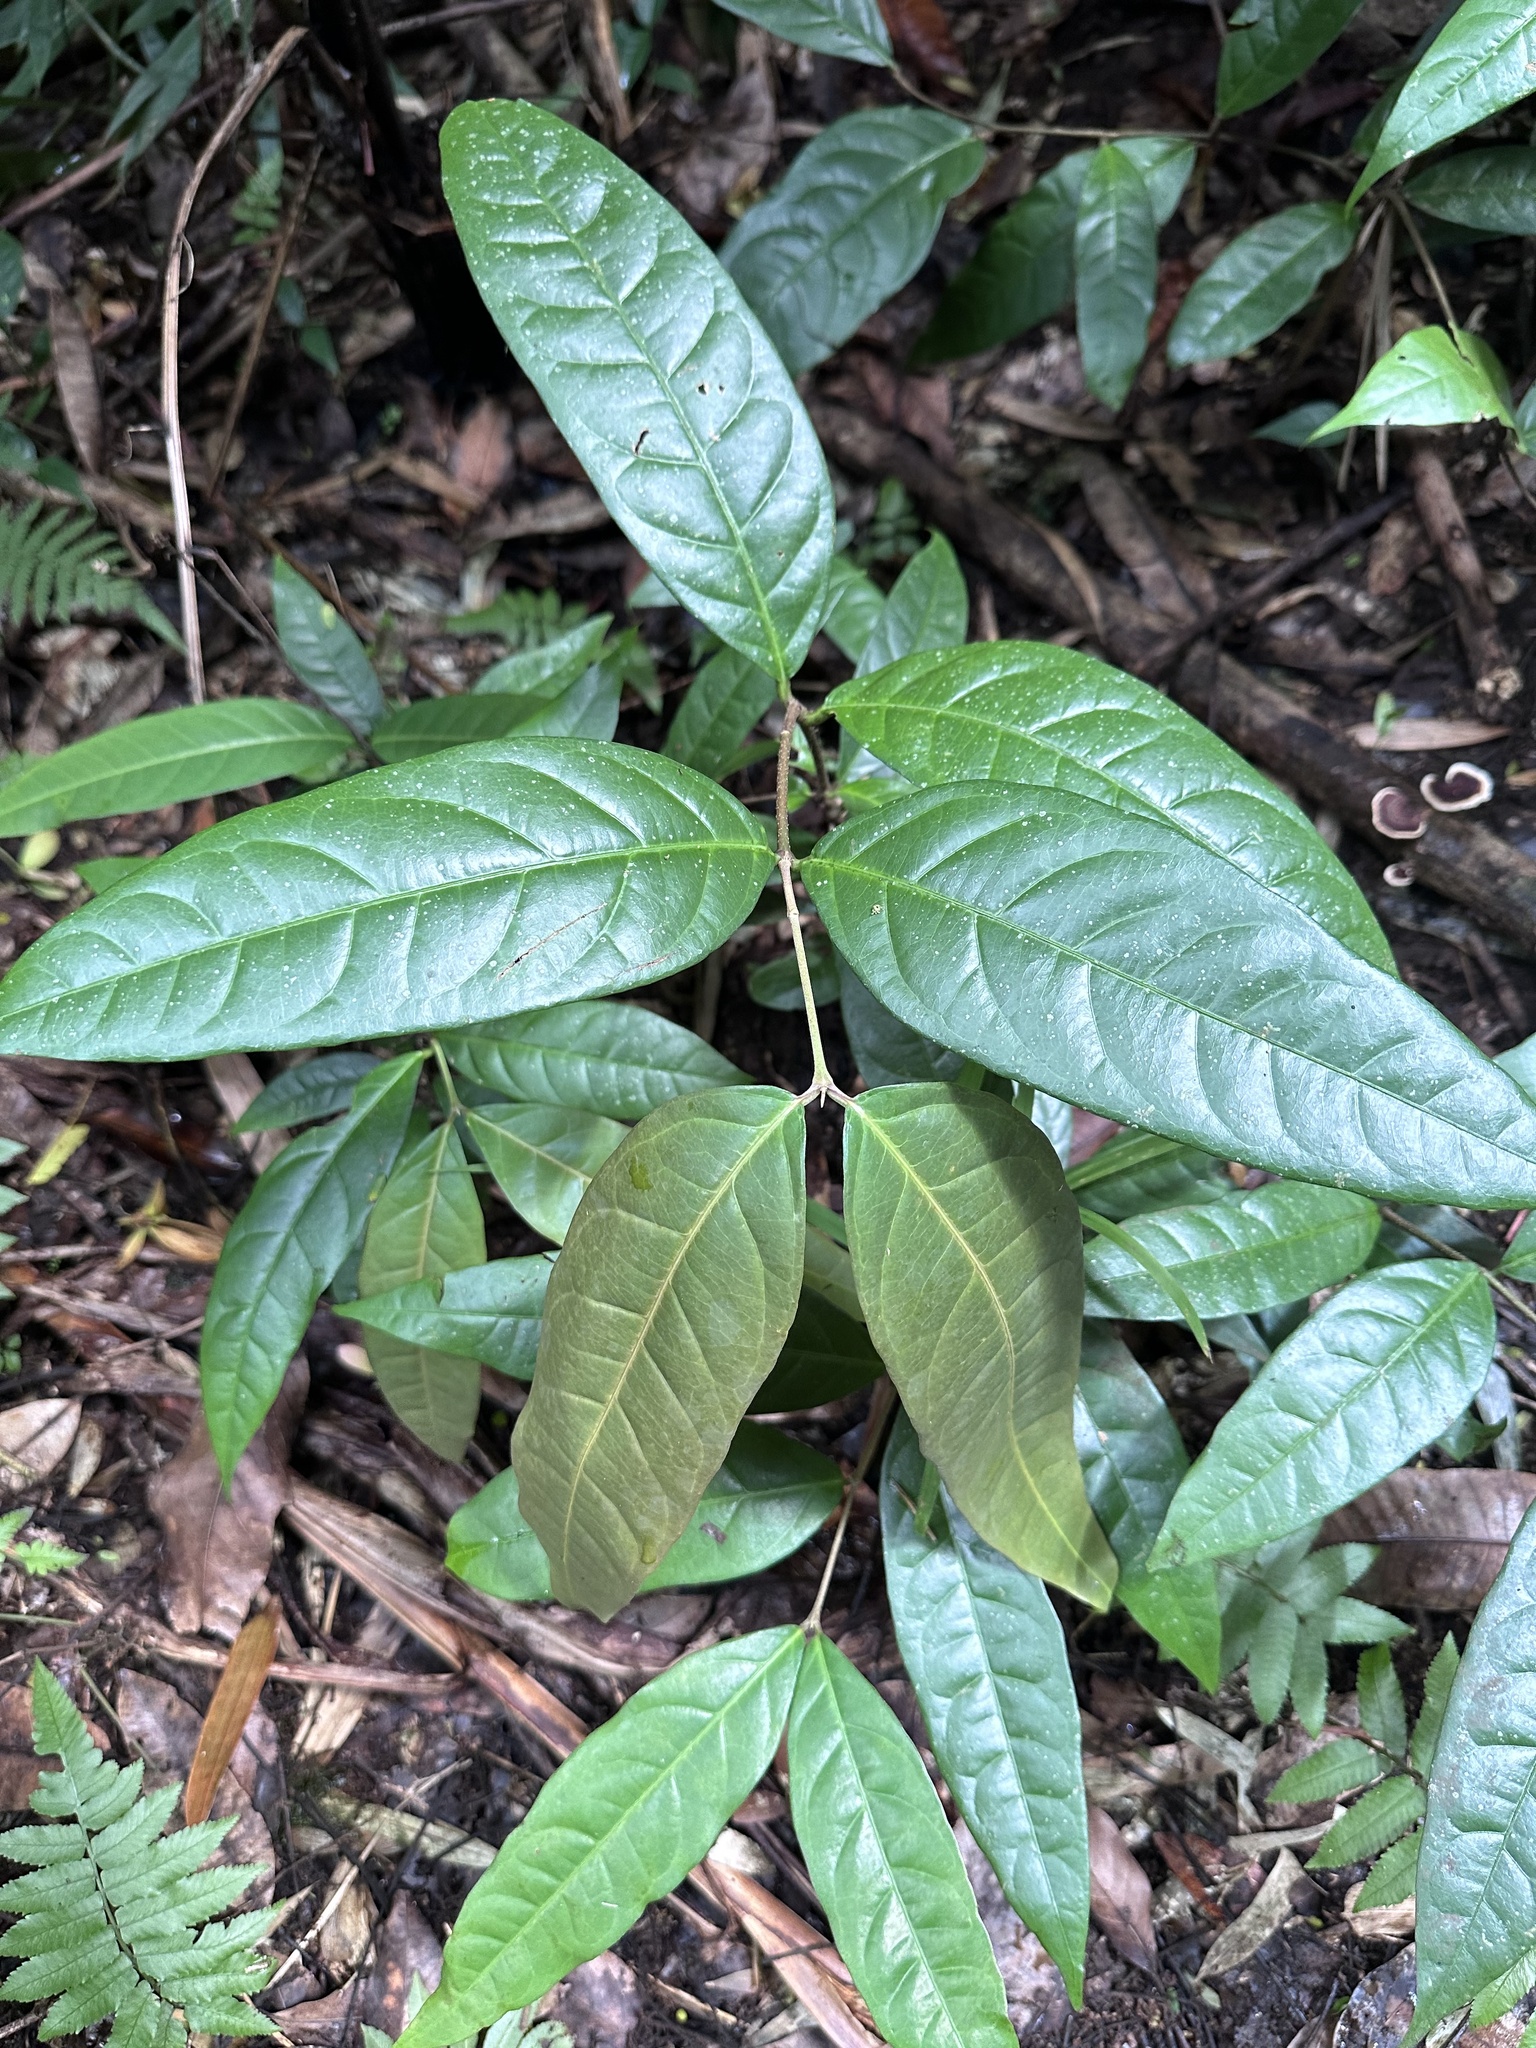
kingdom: Plantae
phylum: Tracheophyta
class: Magnoliopsida
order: Malpighiales
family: Malpighiaceae
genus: Hiptage
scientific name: Hiptage benghalensis
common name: Hiptage
